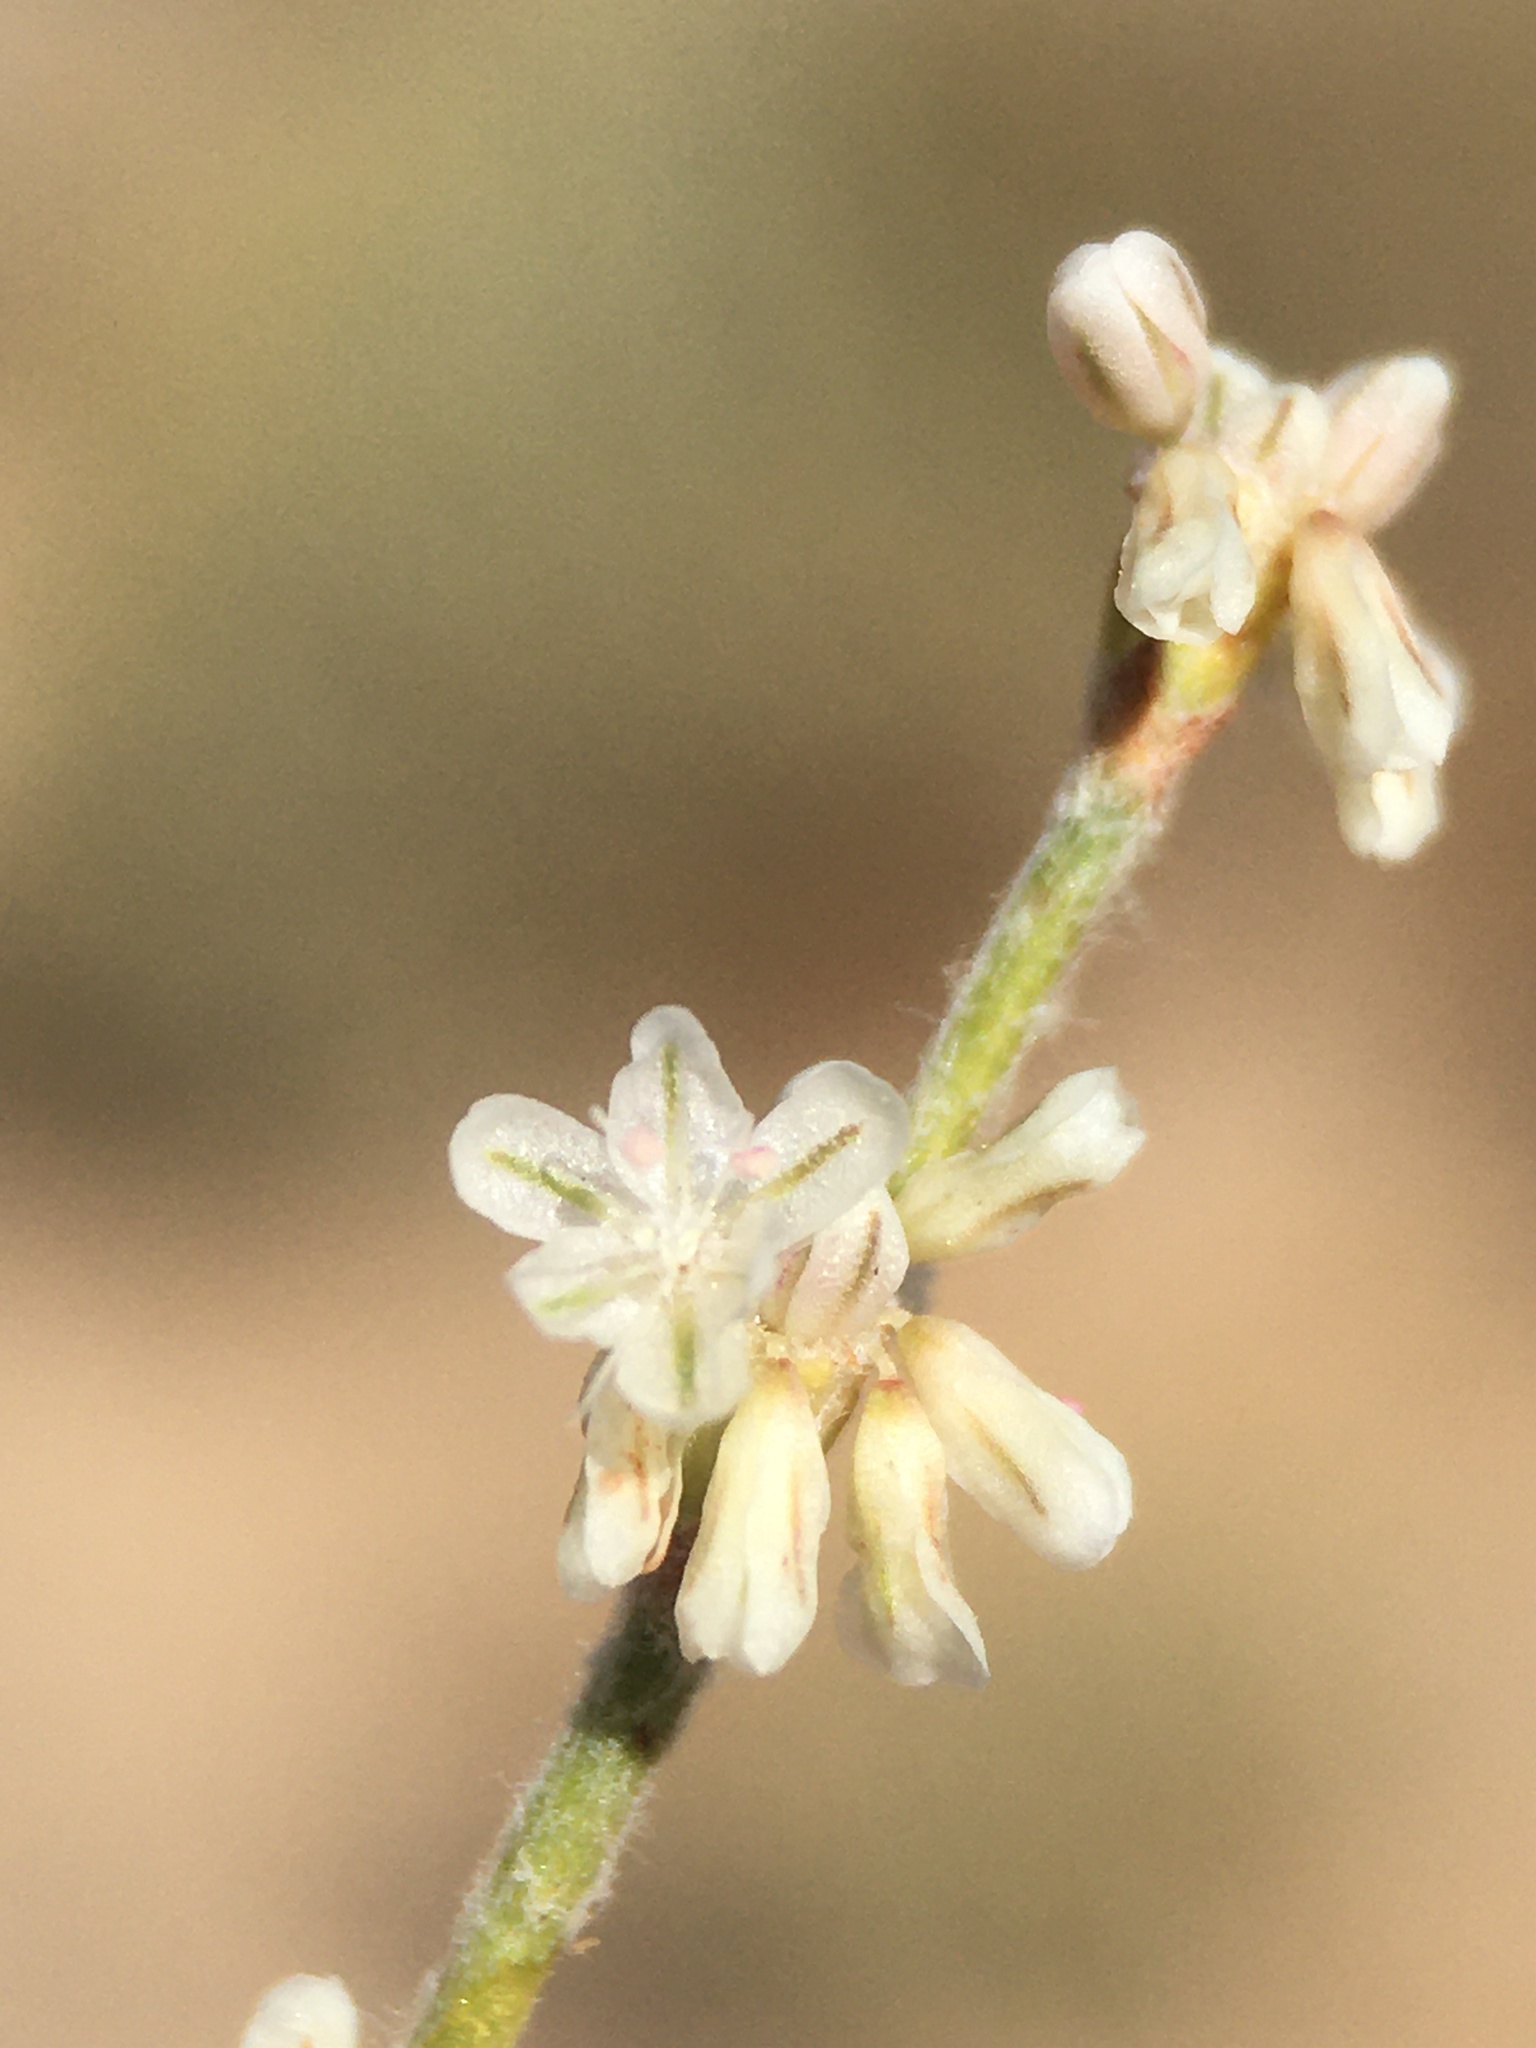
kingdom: Plantae
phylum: Tracheophyta
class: Magnoliopsida
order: Caryophyllales
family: Polygonaceae
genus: Eriogonum
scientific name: Eriogonum baileyi
